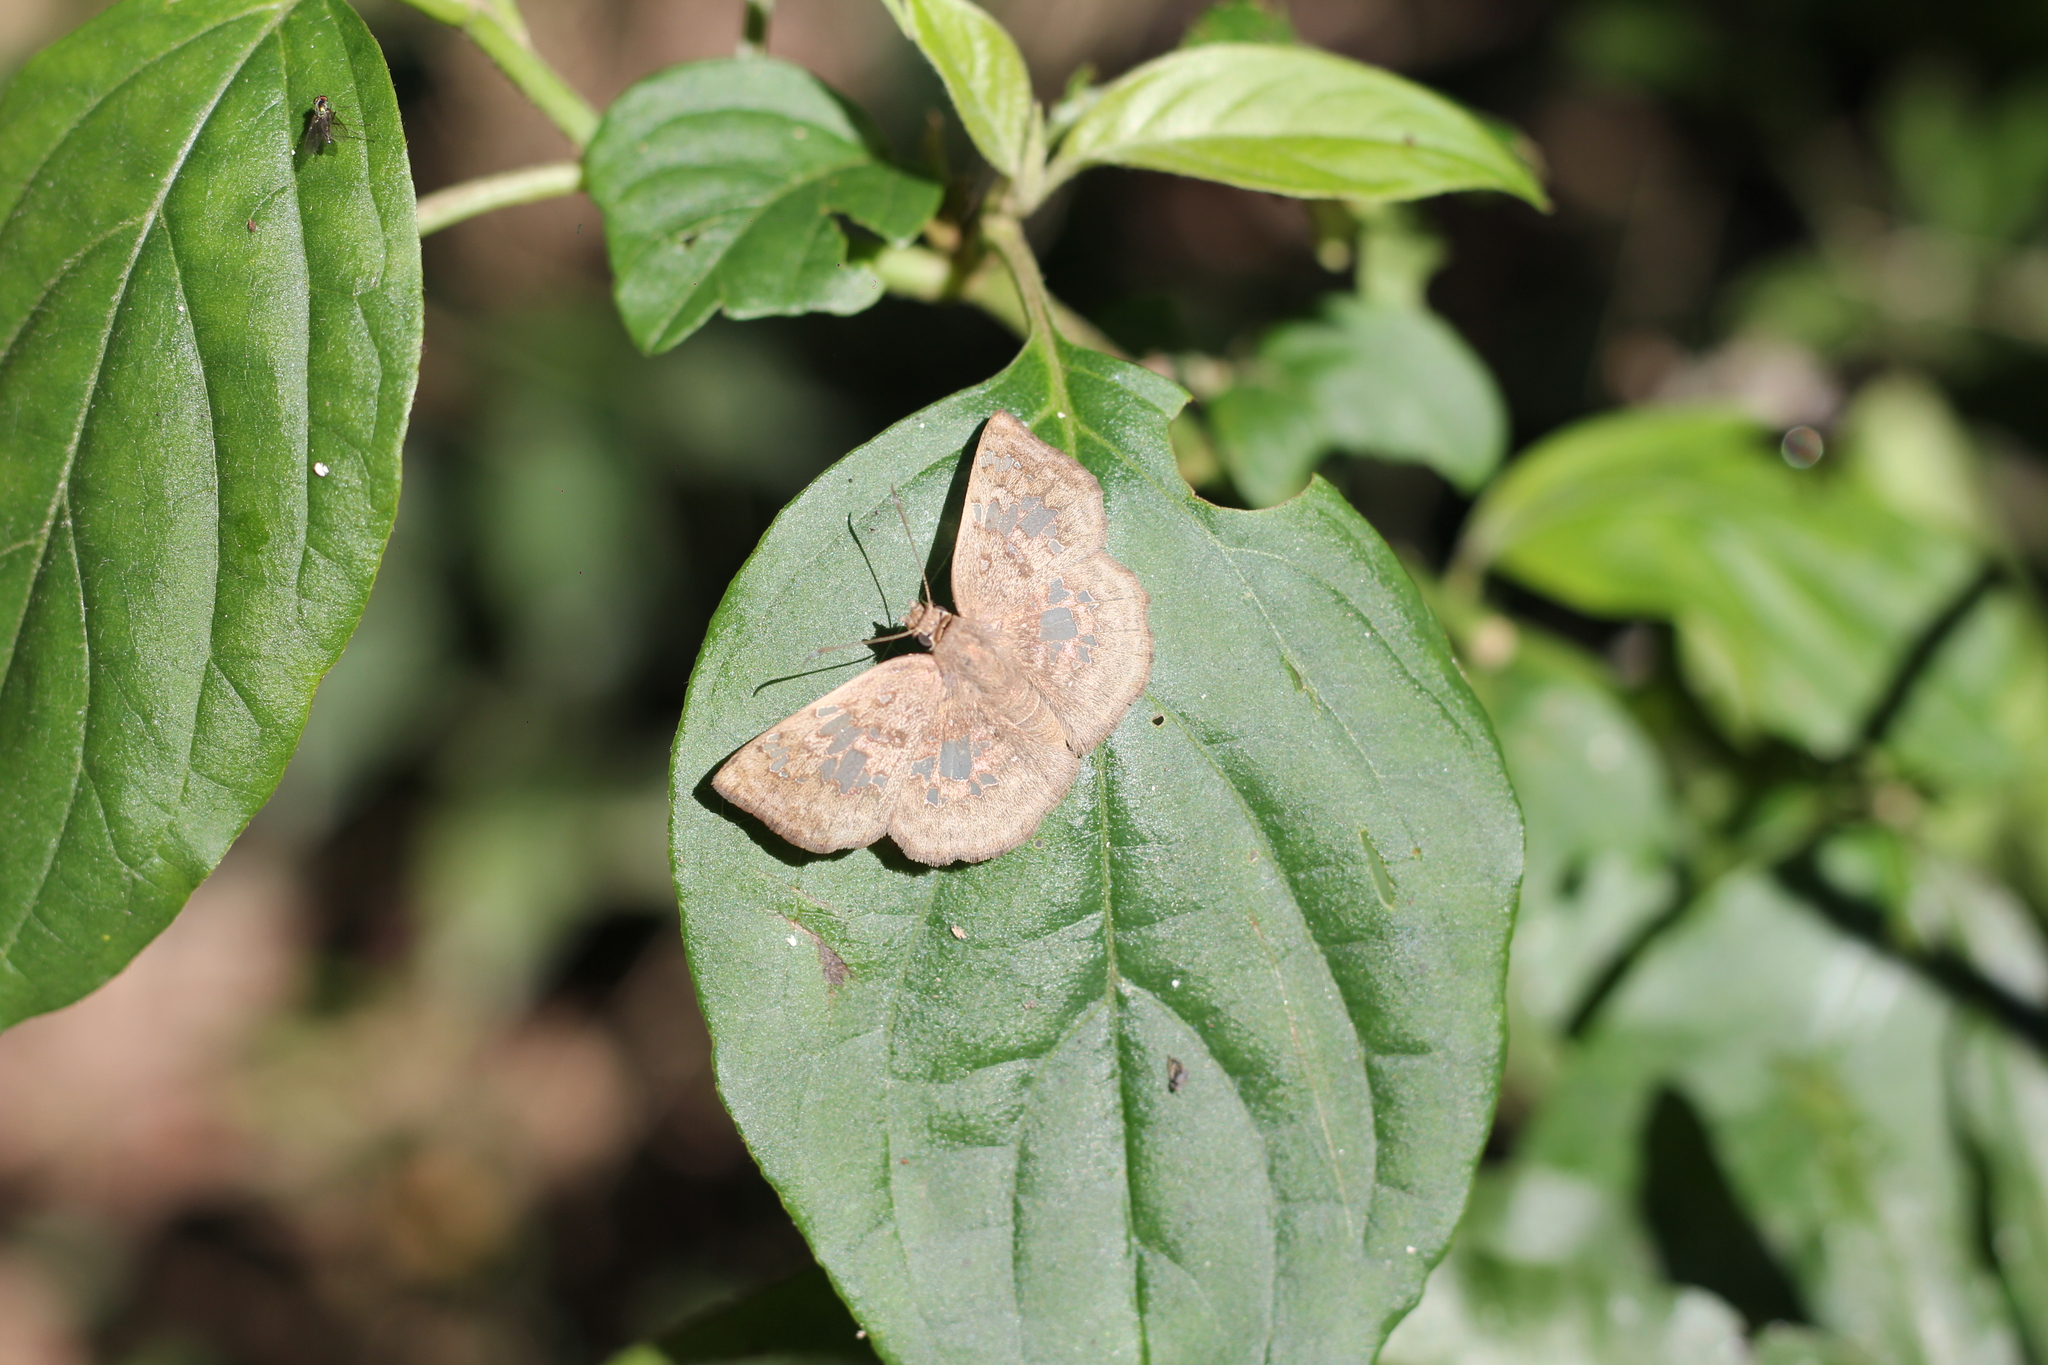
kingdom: Animalia
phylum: Arthropoda
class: Insecta
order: Lepidoptera
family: Hesperiidae
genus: Xenophanes
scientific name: Xenophanes tryxus
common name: Glassy-winged skipper
